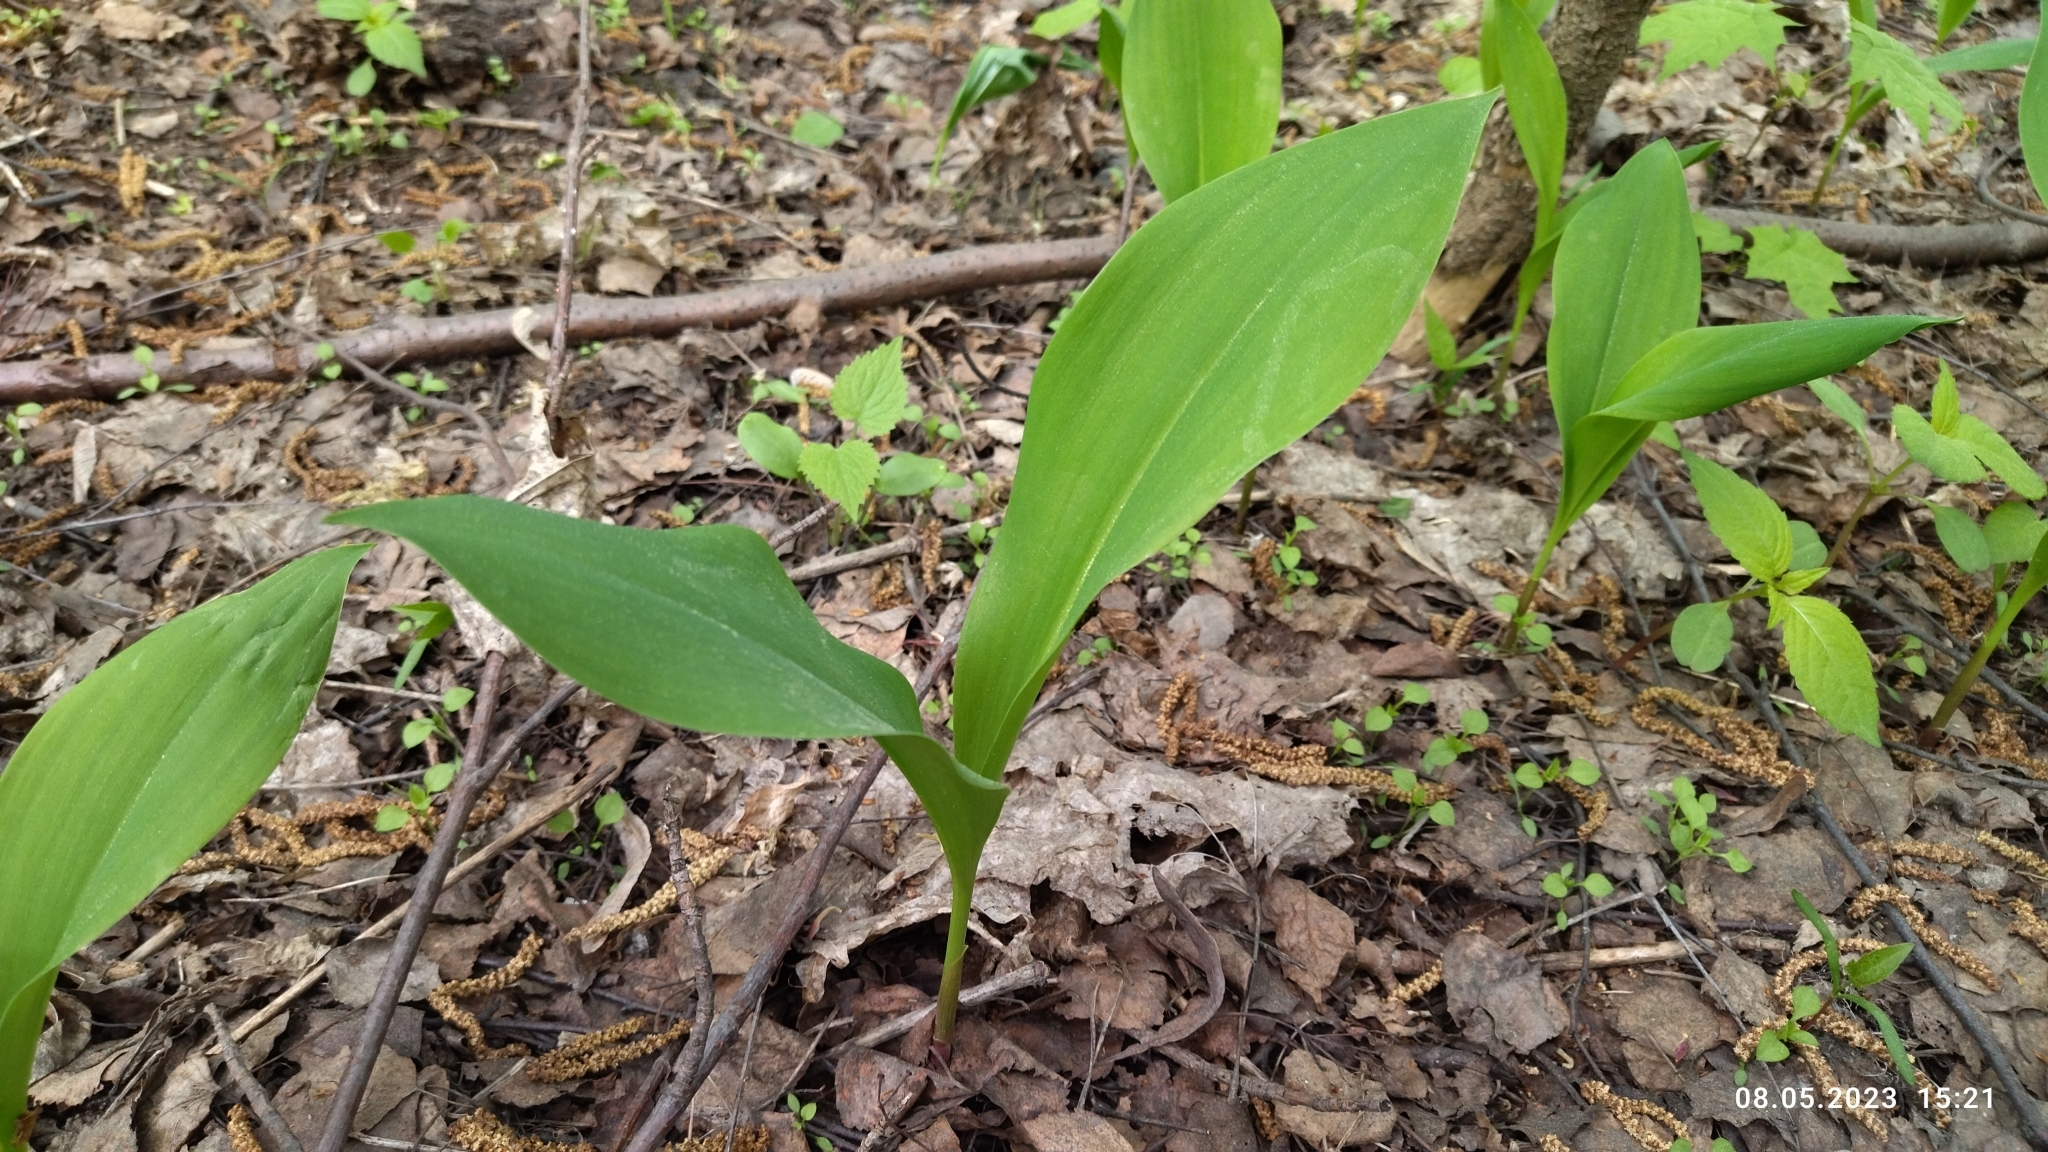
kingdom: Plantae
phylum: Tracheophyta
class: Liliopsida
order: Asparagales
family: Asparagaceae
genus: Convallaria
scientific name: Convallaria majalis
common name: Lily-of-the-valley
